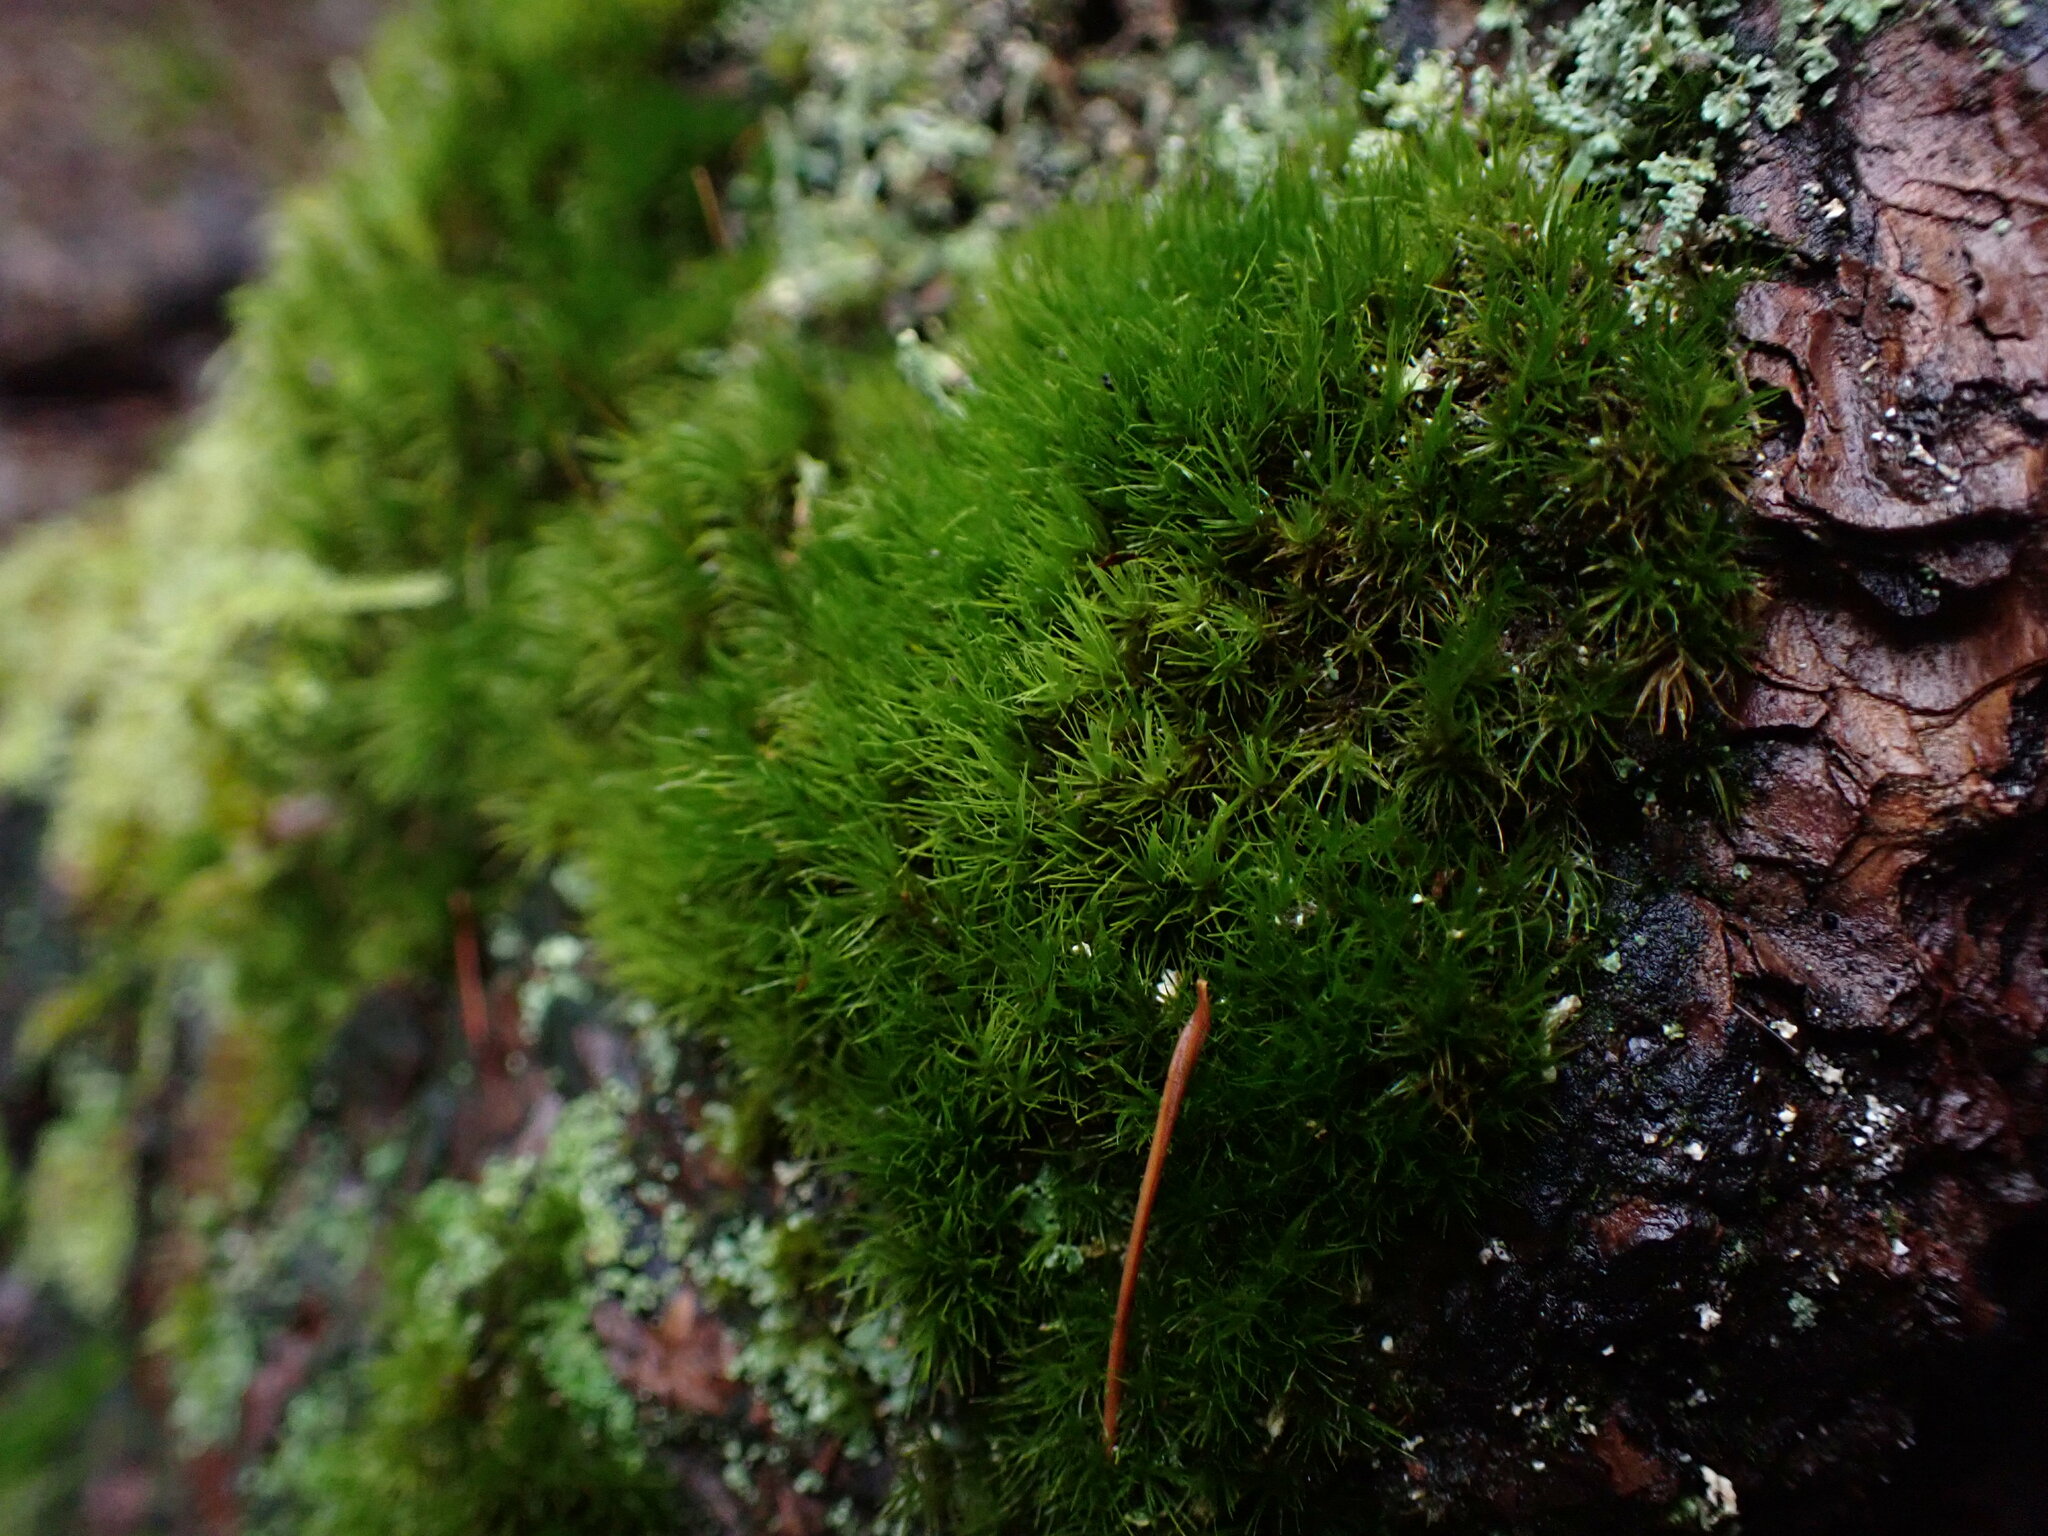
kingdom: Plantae
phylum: Bryophyta
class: Bryopsida
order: Dicranales
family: Dicranaceae
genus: Orthodicranum
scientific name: Orthodicranum tauricum
